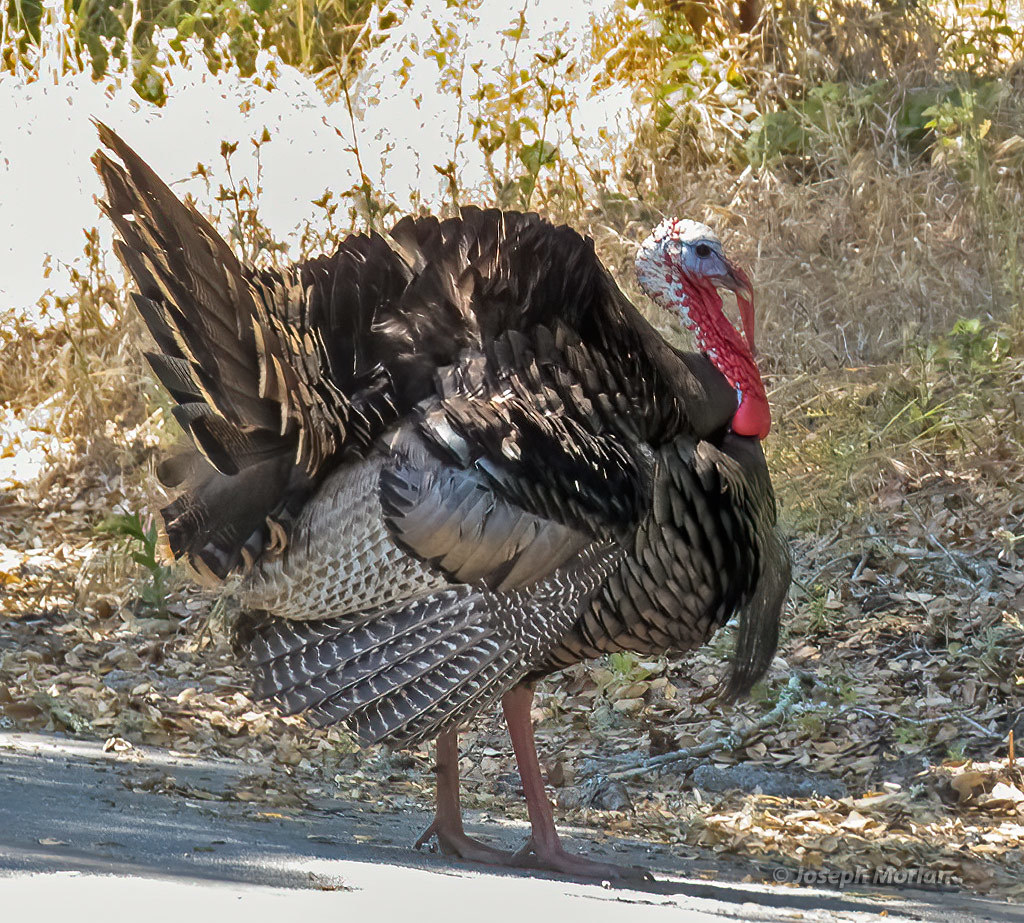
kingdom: Animalia
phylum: Chordata
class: Aves
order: Galliformes
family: Phasianidae
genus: Meleagris
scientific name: Meleagris gallopavo
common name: Wild turkey
